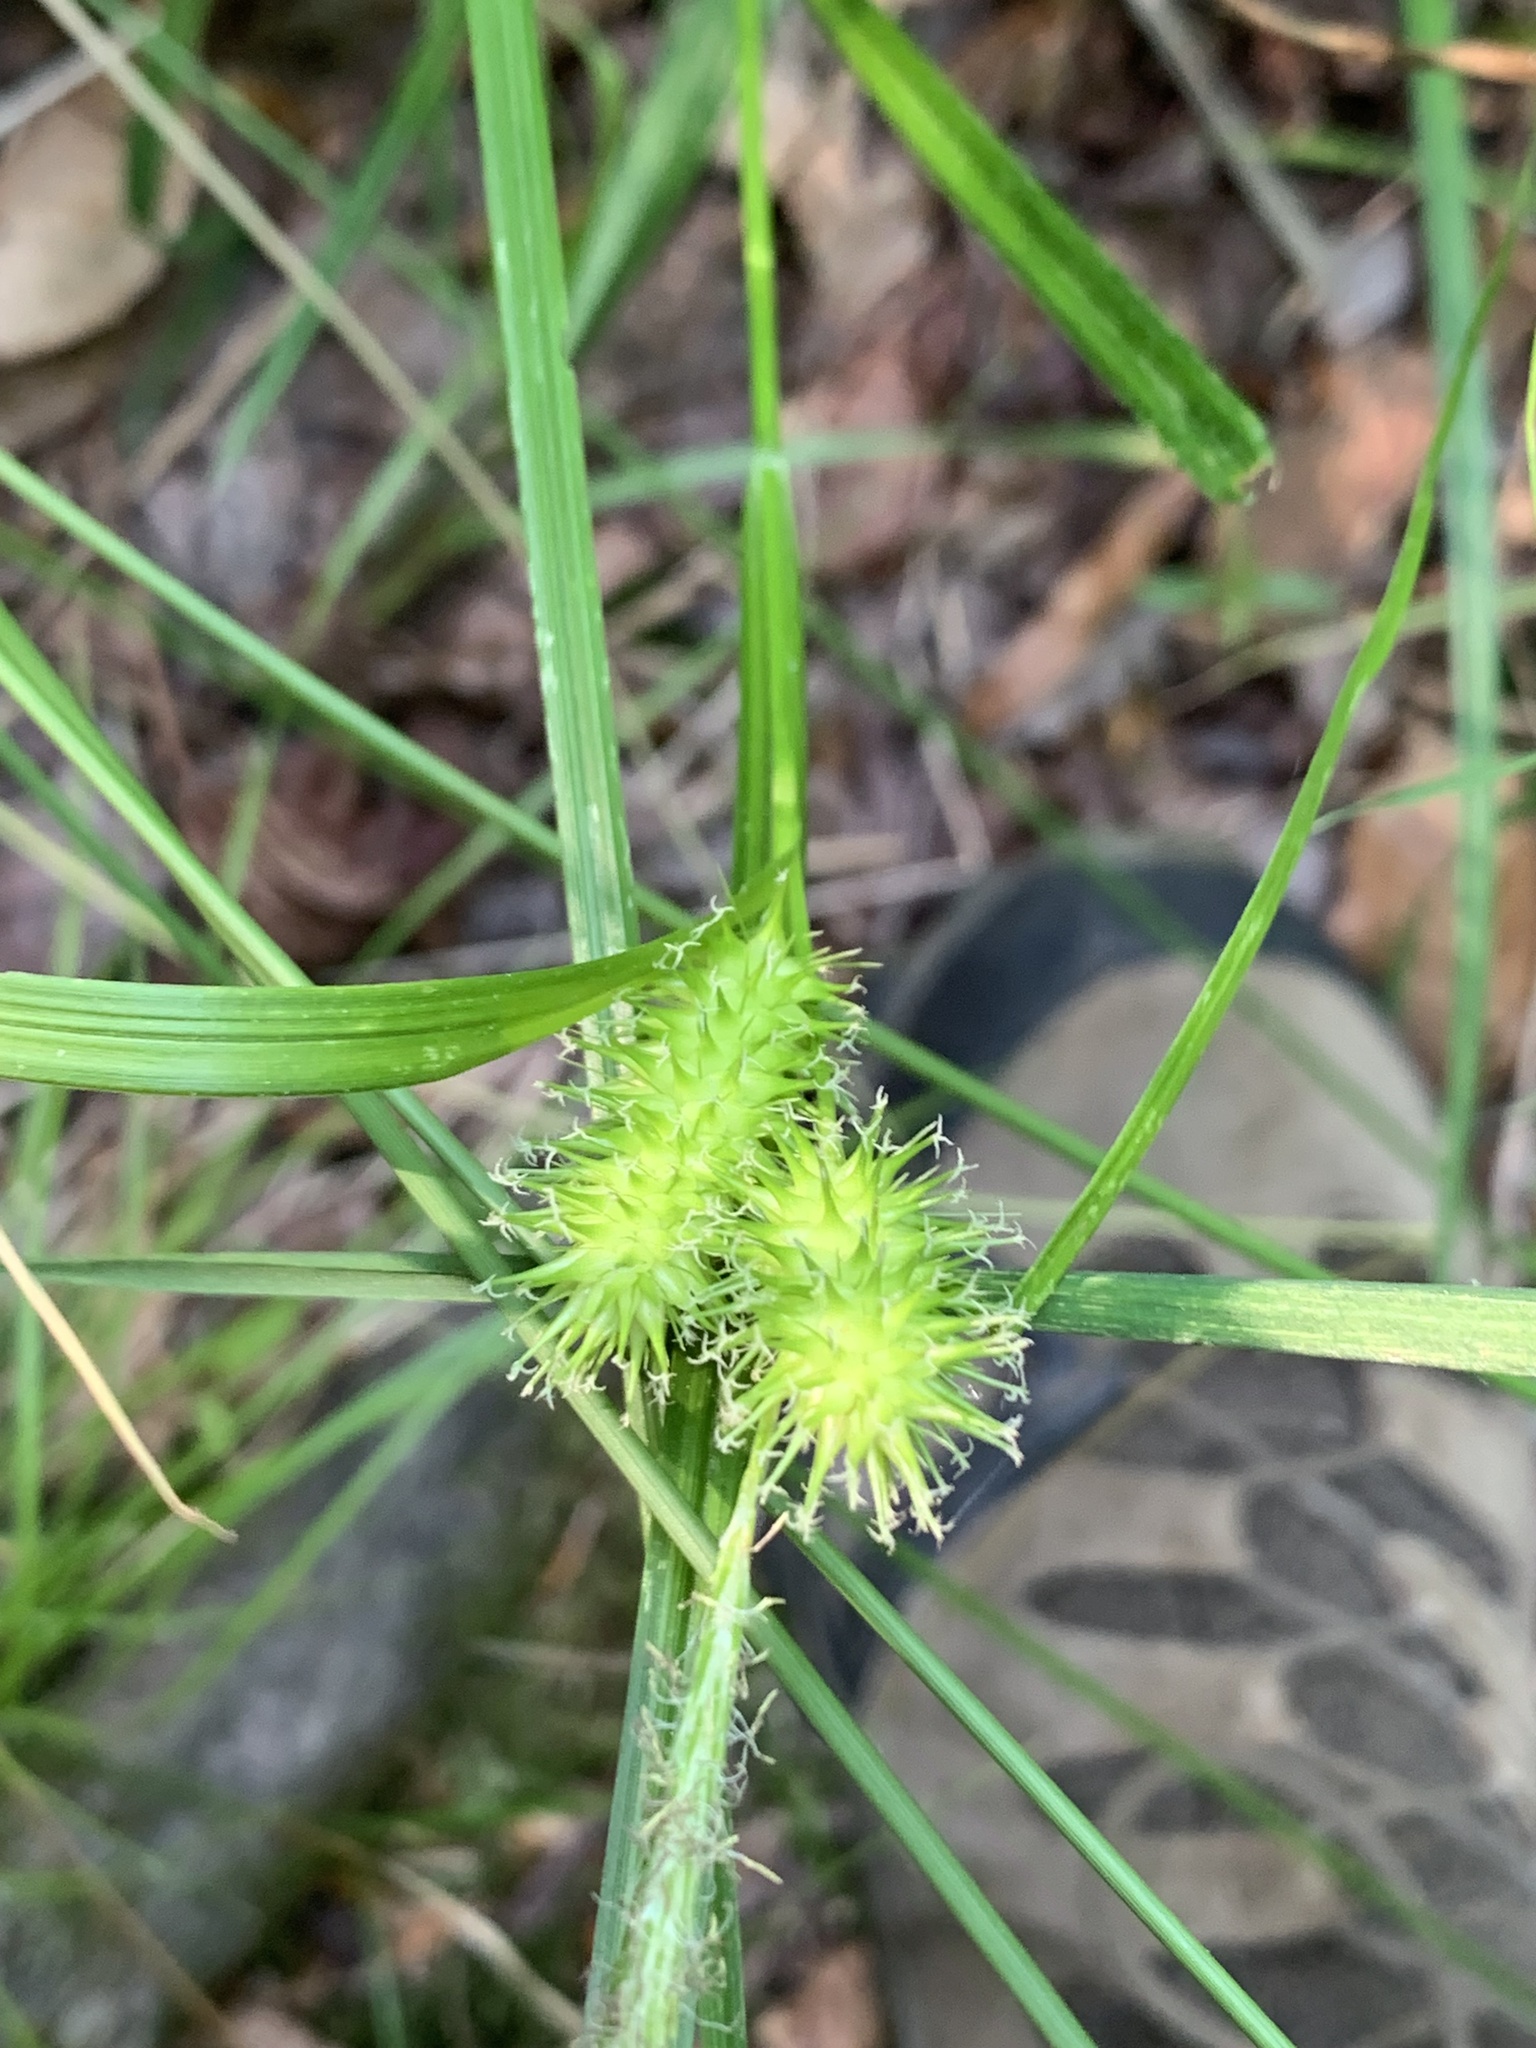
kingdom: Plantae
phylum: Tracheophyta
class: Liliopsida
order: Poales
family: Cyperaceae
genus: Carex
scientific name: Carex lurida
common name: Sallow sedge
